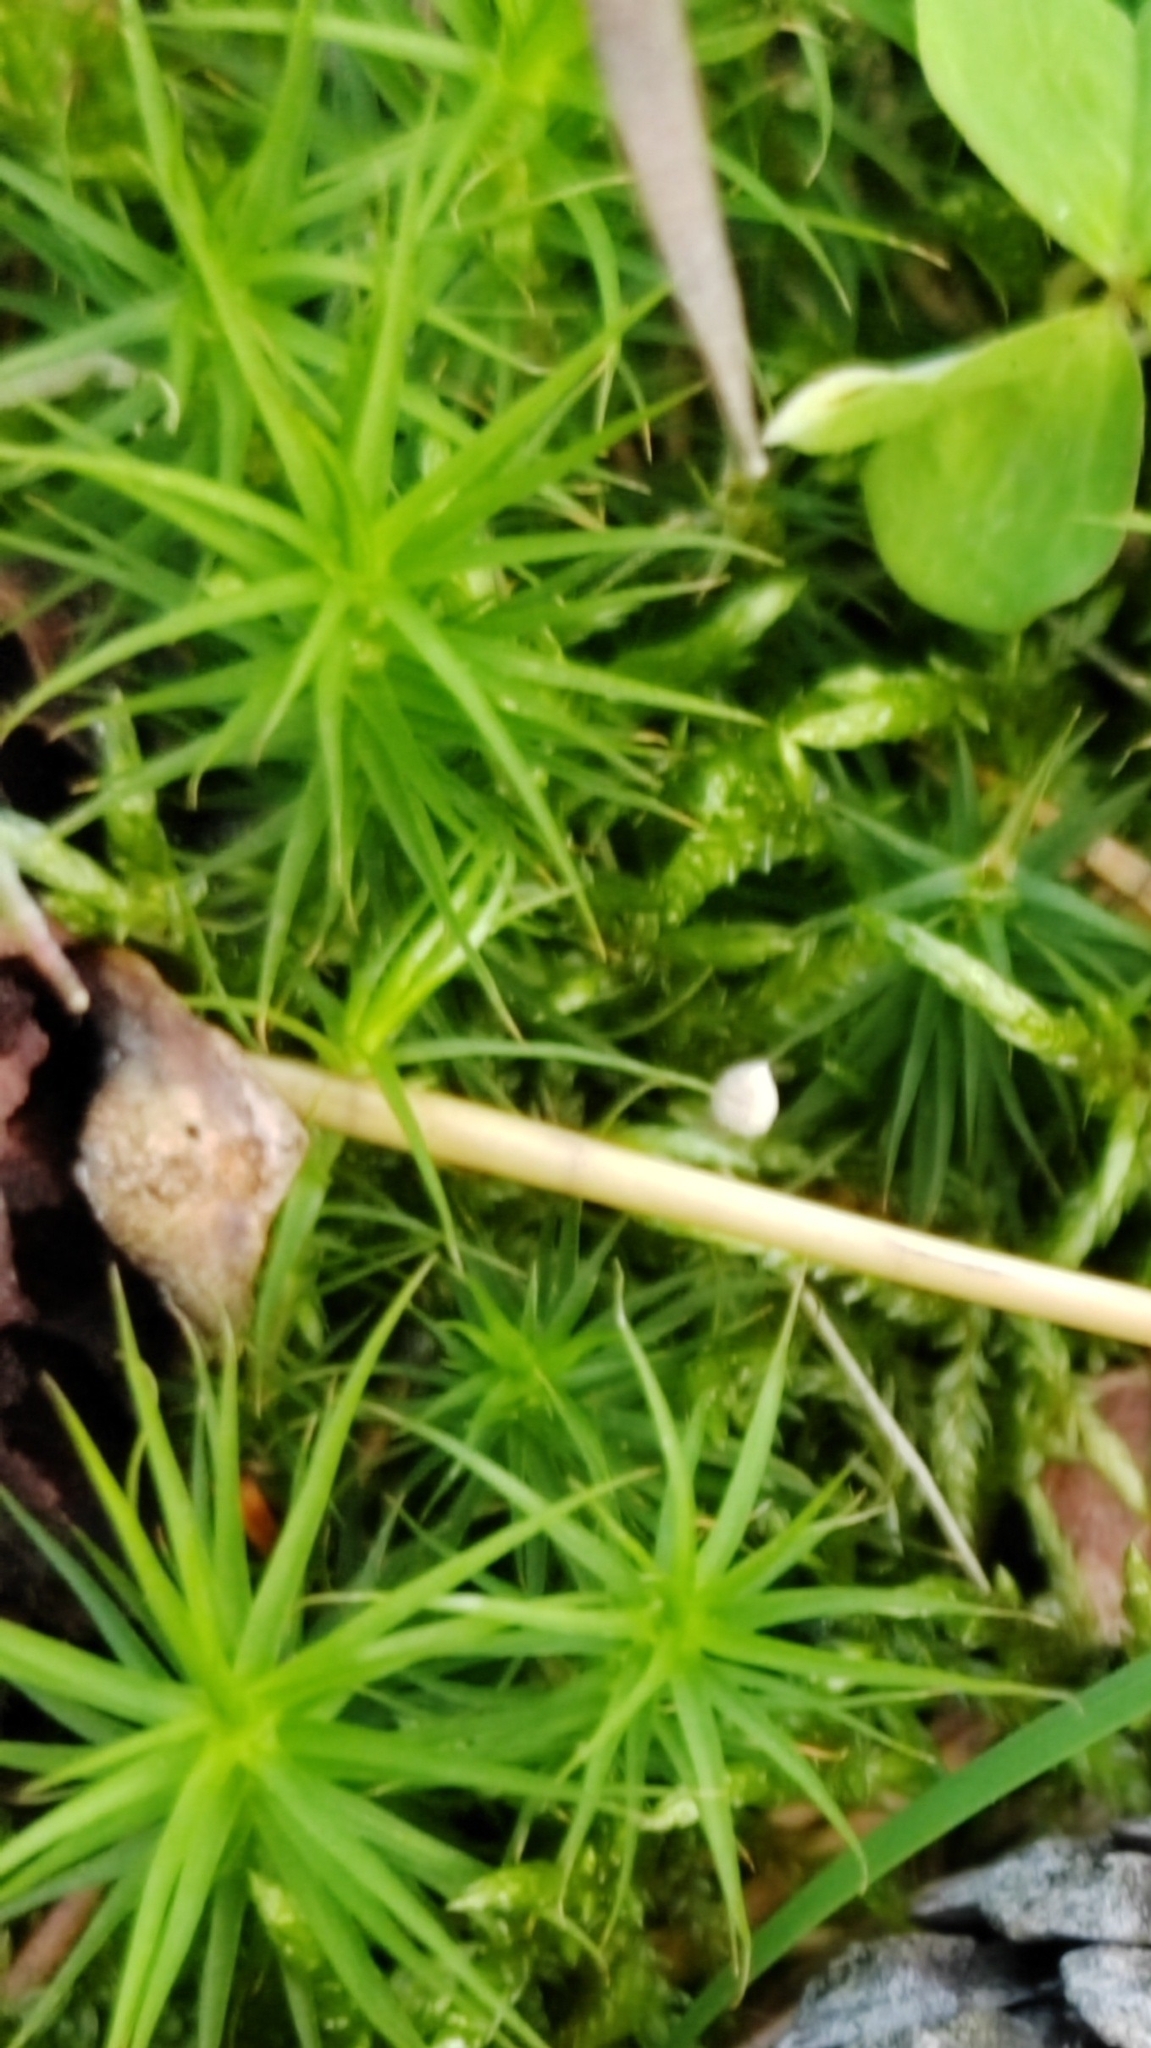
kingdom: Plantae
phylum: Bryophyta
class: Polytrichopsida
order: Polytrichales
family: Polytrichaceae
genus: Polytrichum
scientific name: Polytrichum commune
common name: Common haircap
